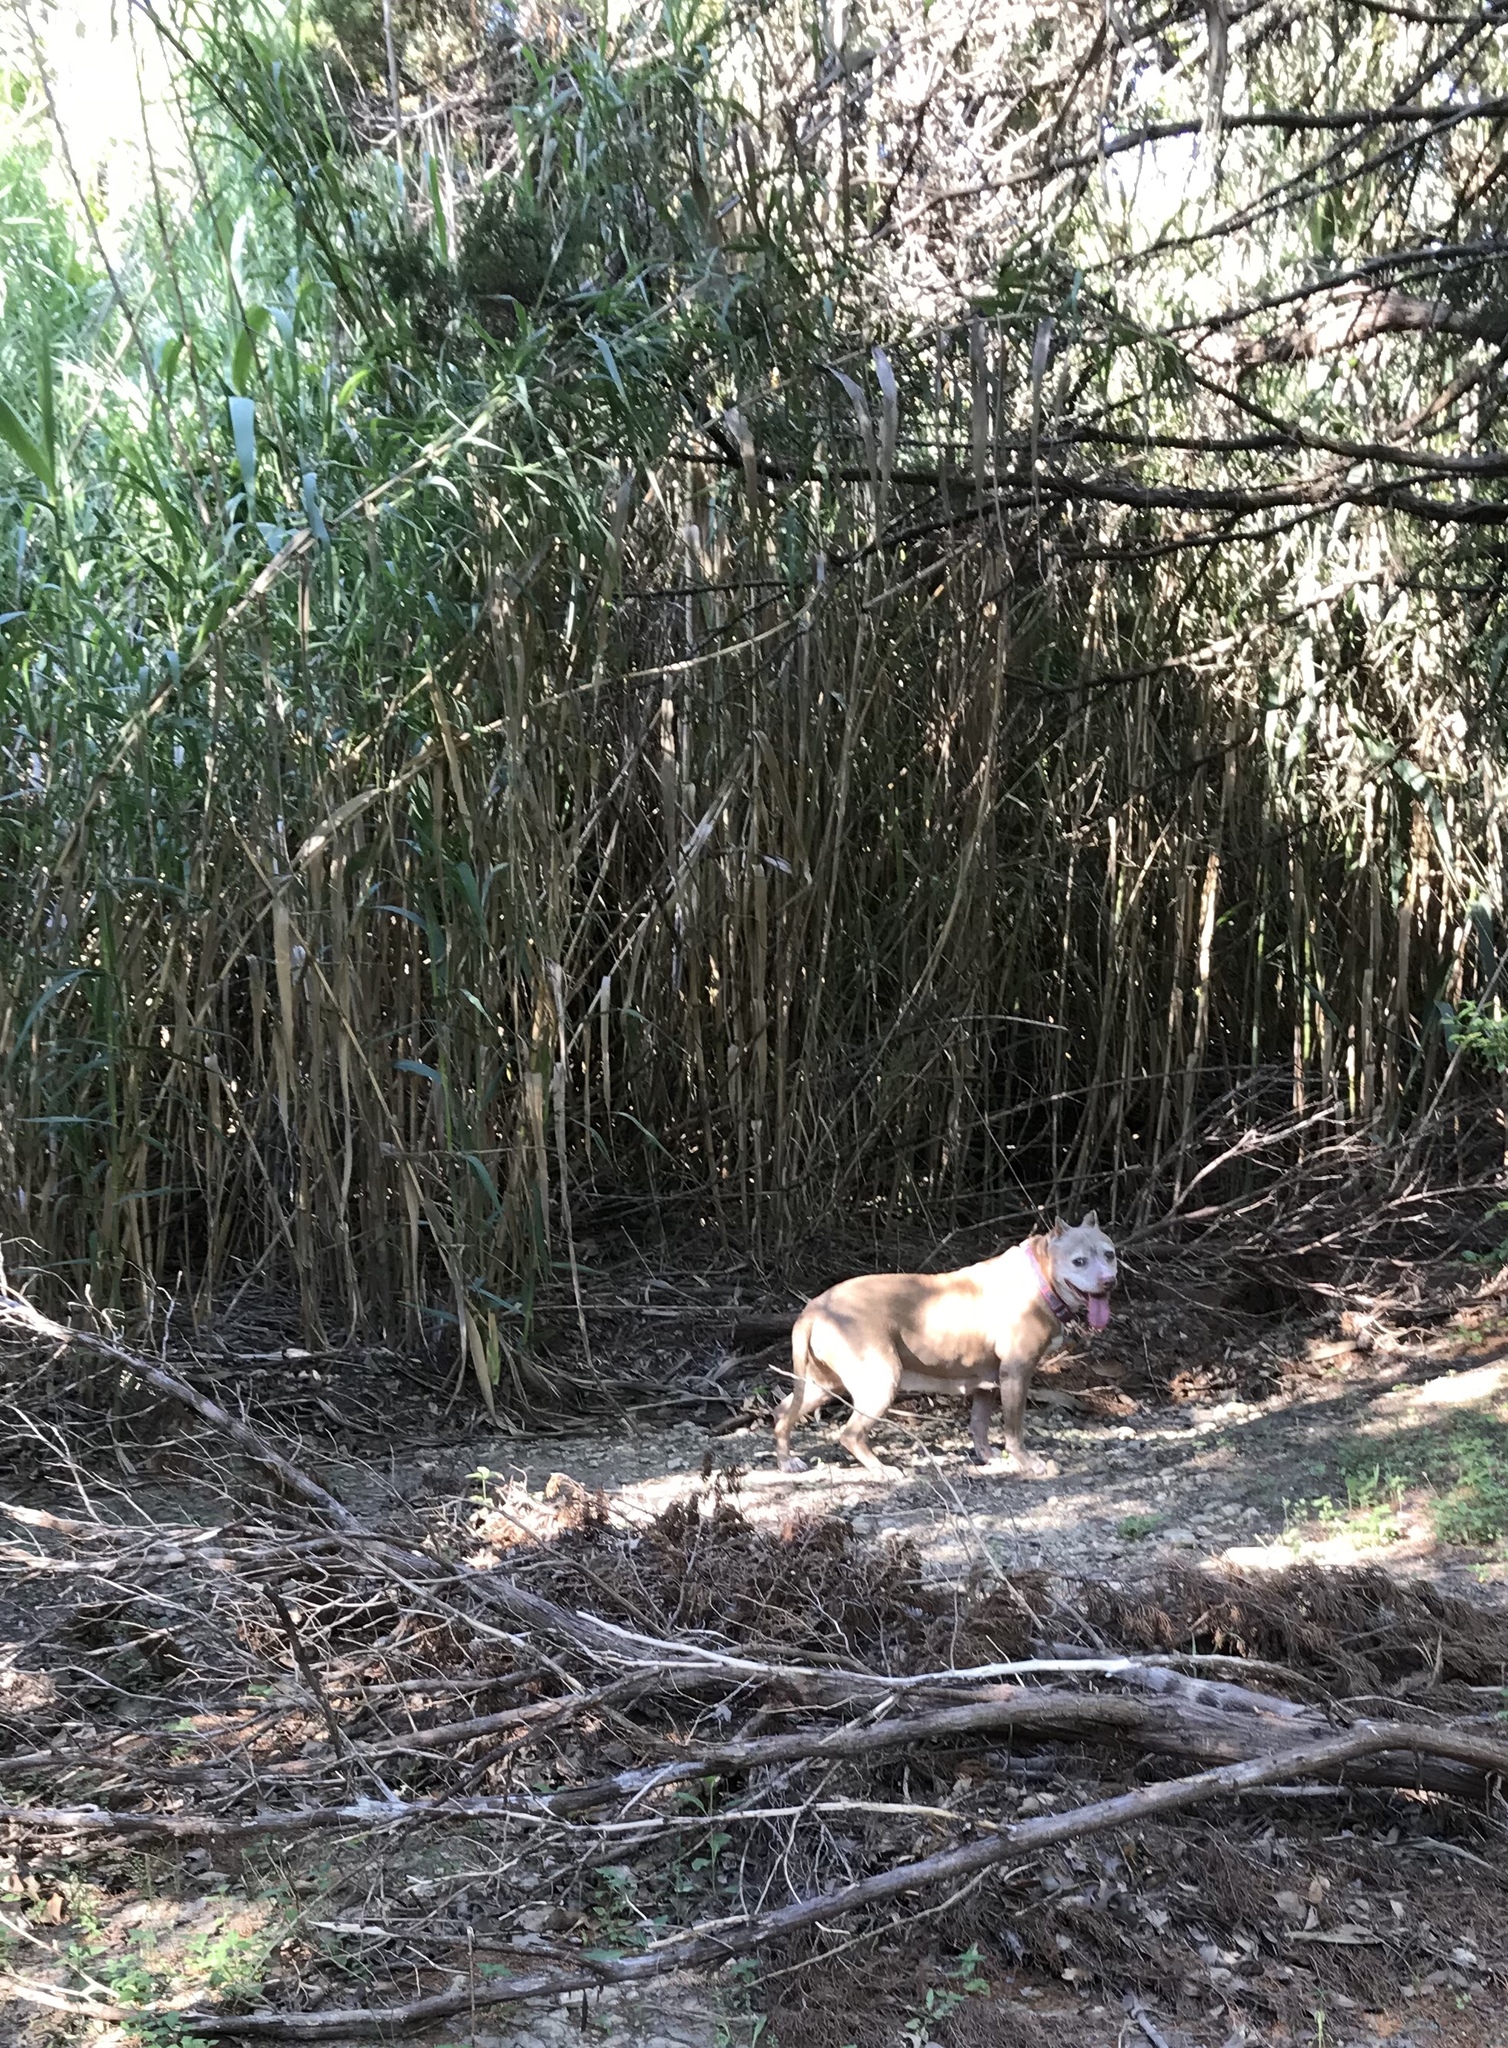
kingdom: Plantae
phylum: Tracheophyta
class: Liliopsida
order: Poales
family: Poaceae
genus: Arundo
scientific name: Arundo donax
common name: Giant reed
